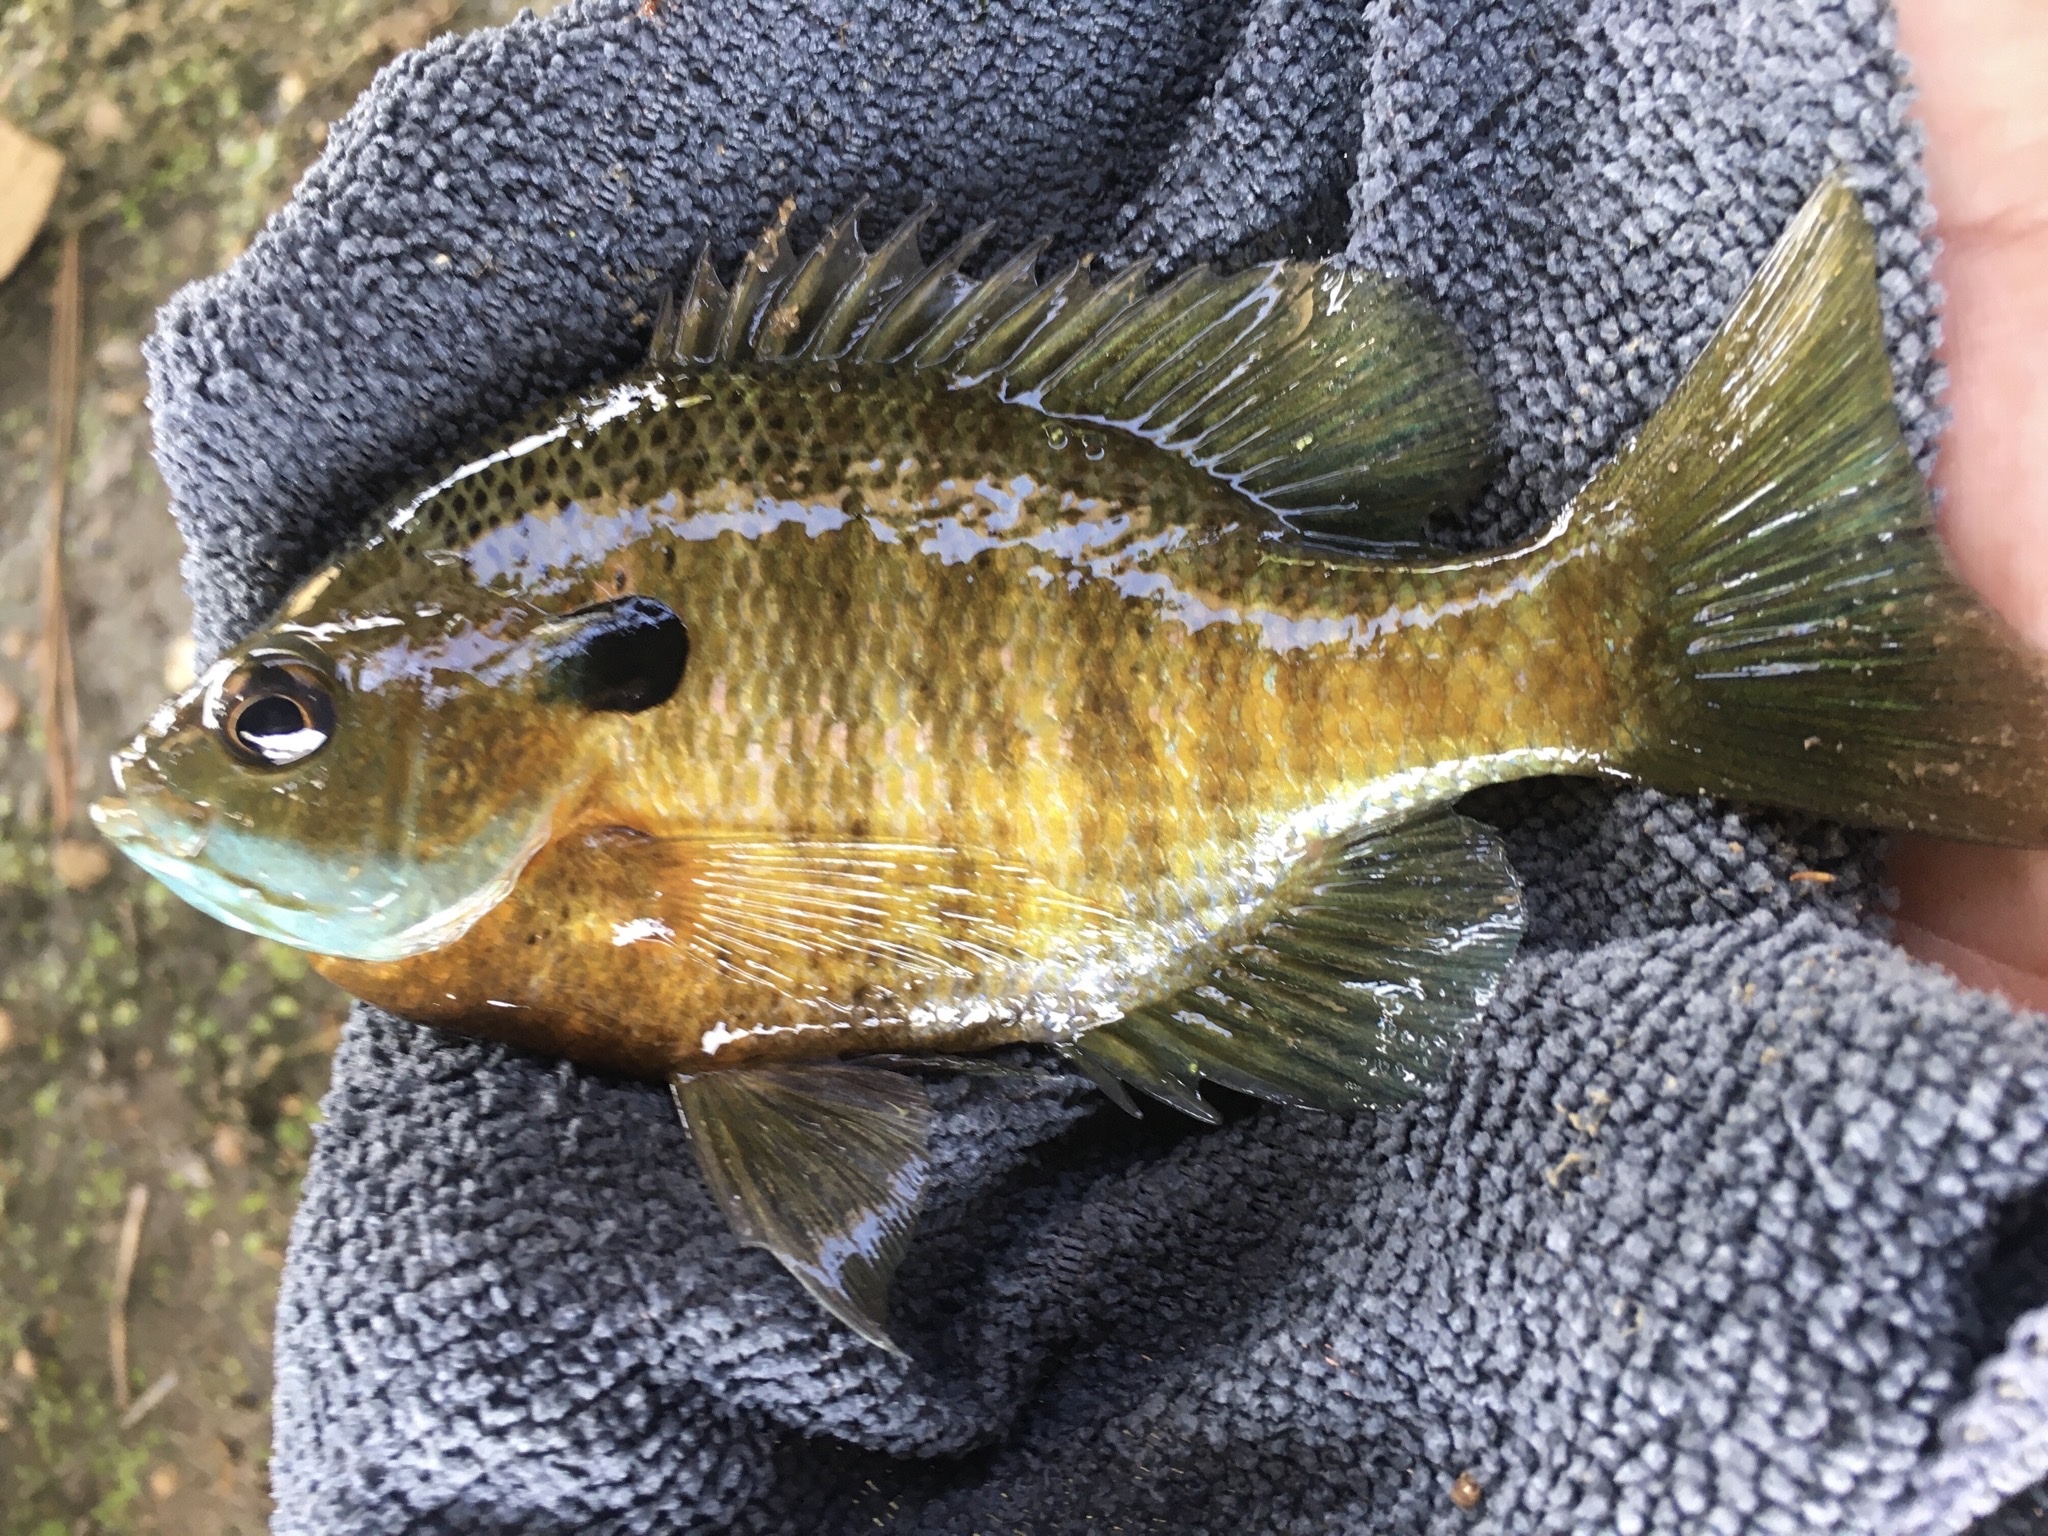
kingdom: Animalia
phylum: Chordata
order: Perciformes
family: Centrarchidae
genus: Lepomis
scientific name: Lepomis macrochirus
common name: Bluegill
